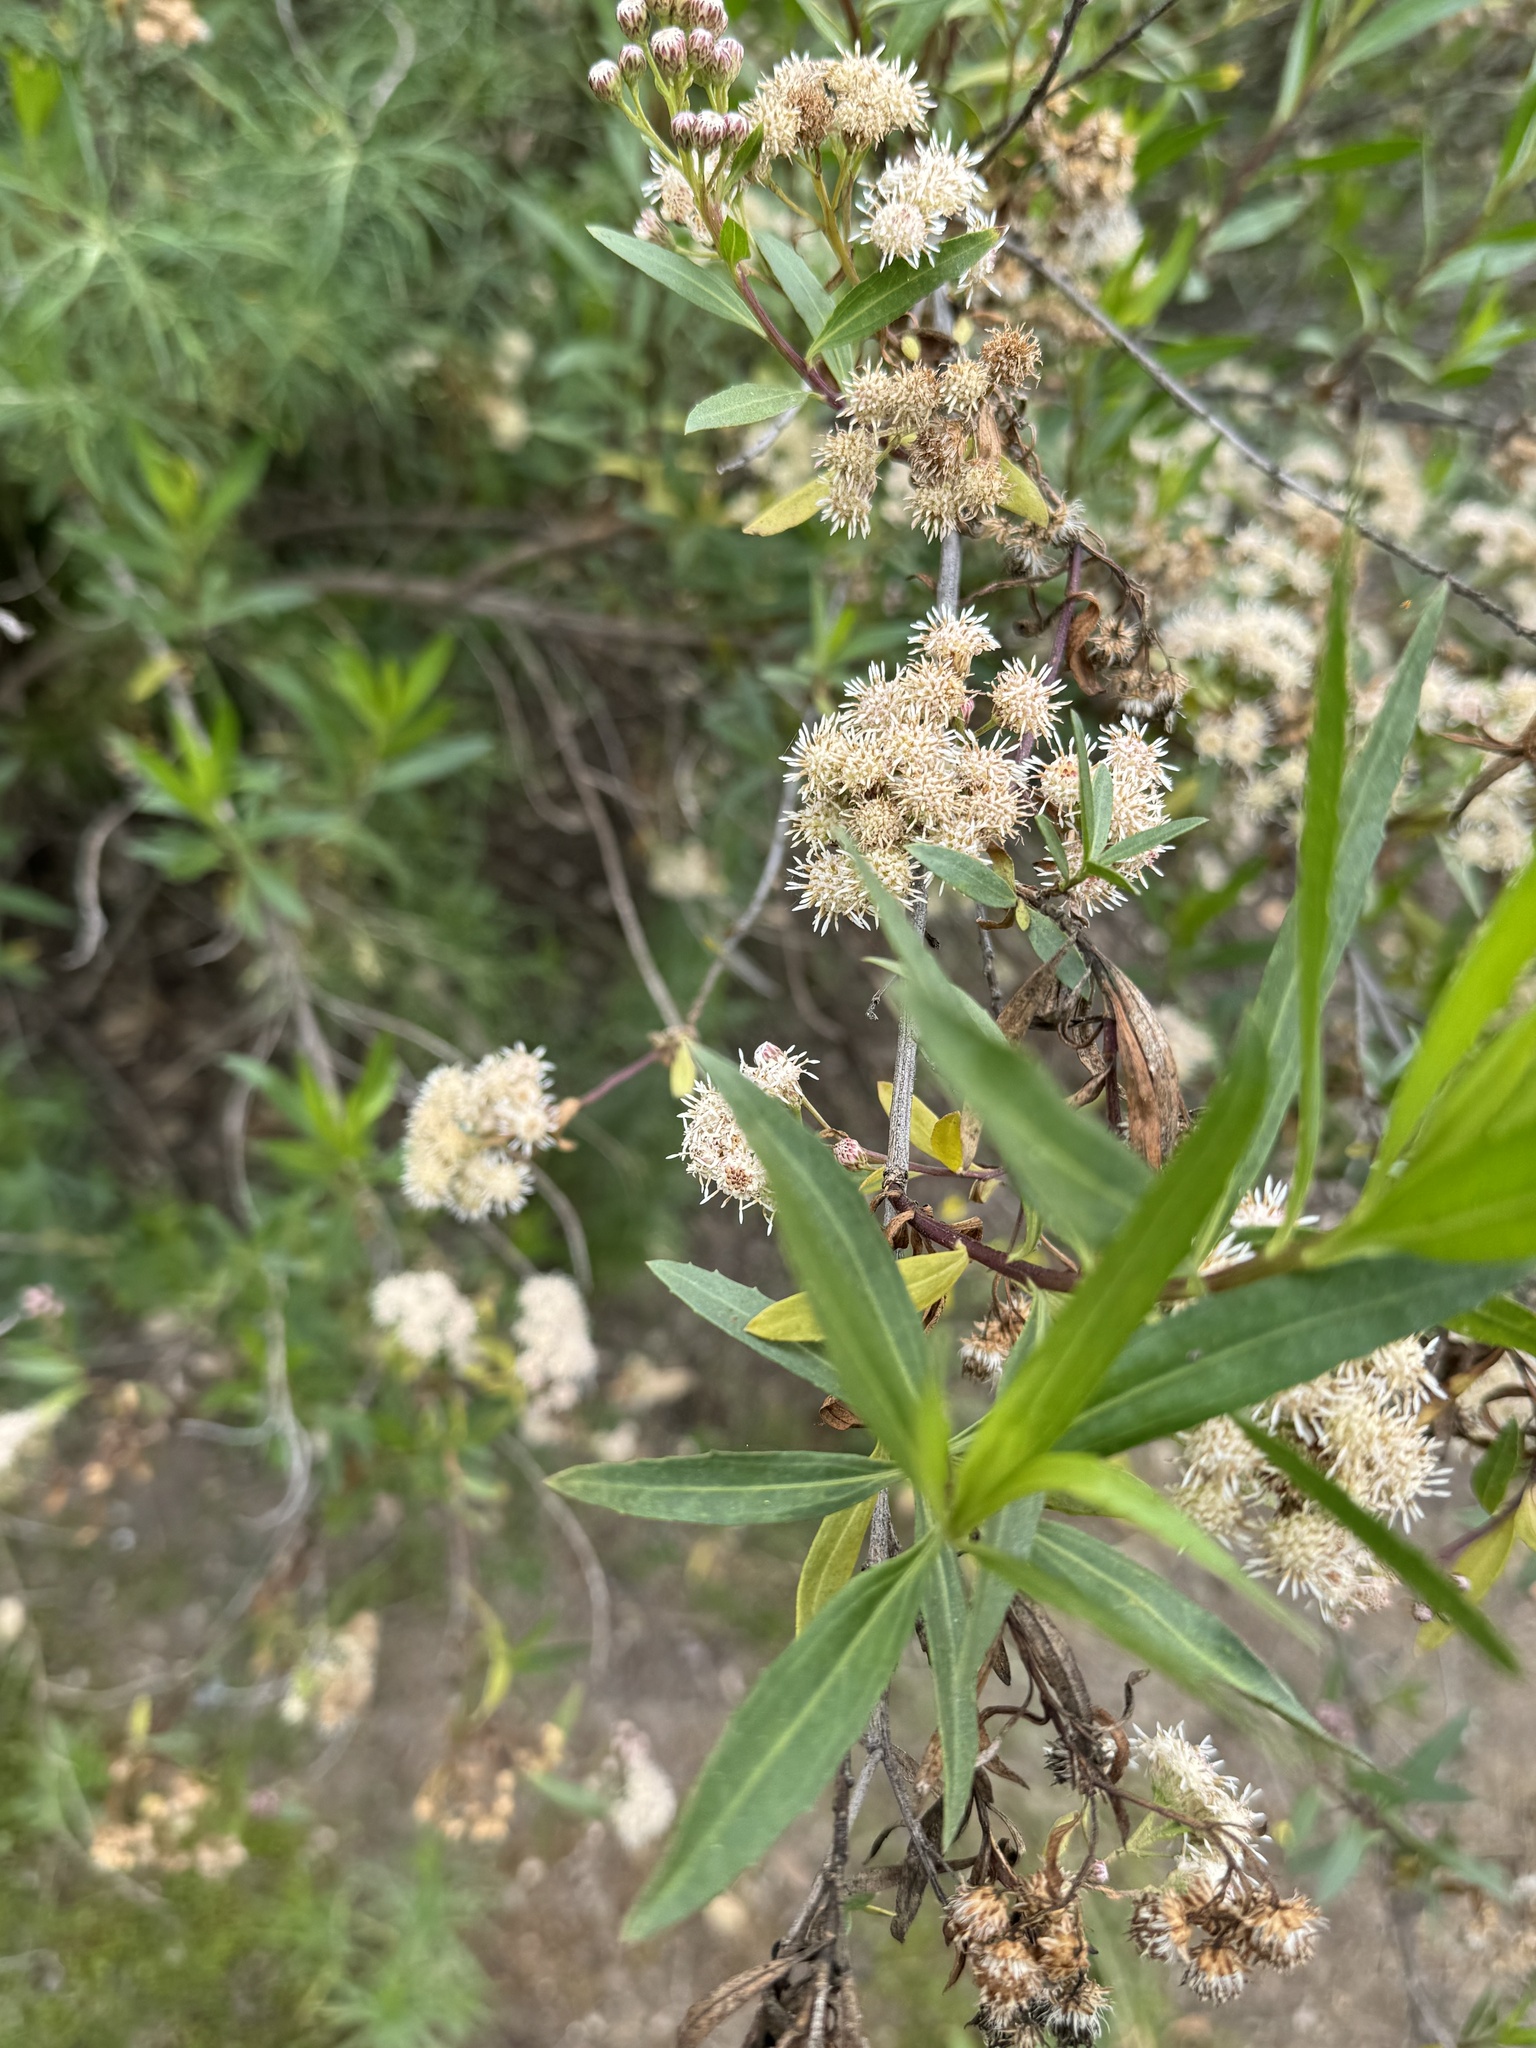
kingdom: Plantae
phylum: Tracheophyta
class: Magnoliopsida
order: Asterales
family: Asteraceae
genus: Baccharis
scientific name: Baccharis salicifolia
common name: Sticky baccharis
